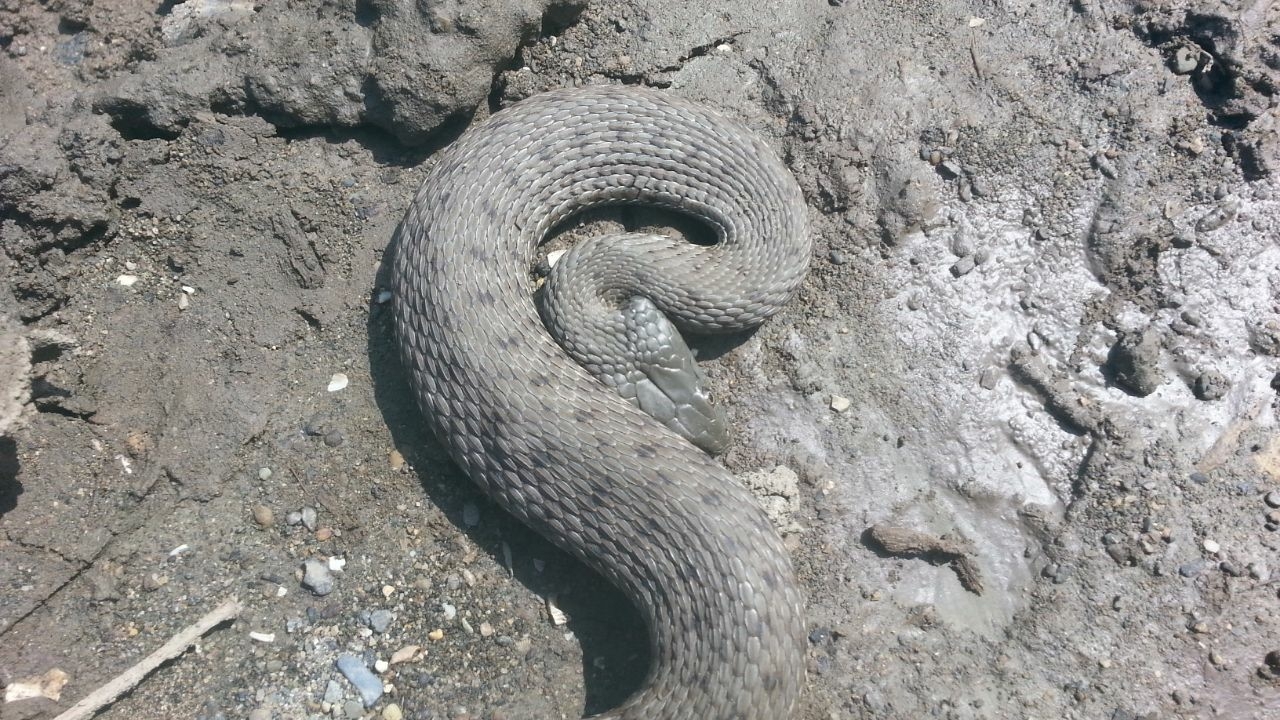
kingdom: Animalia
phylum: Chordata
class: Squamata
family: Colubridae
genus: Natrix
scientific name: Natrix tessellata
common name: Dice snake
